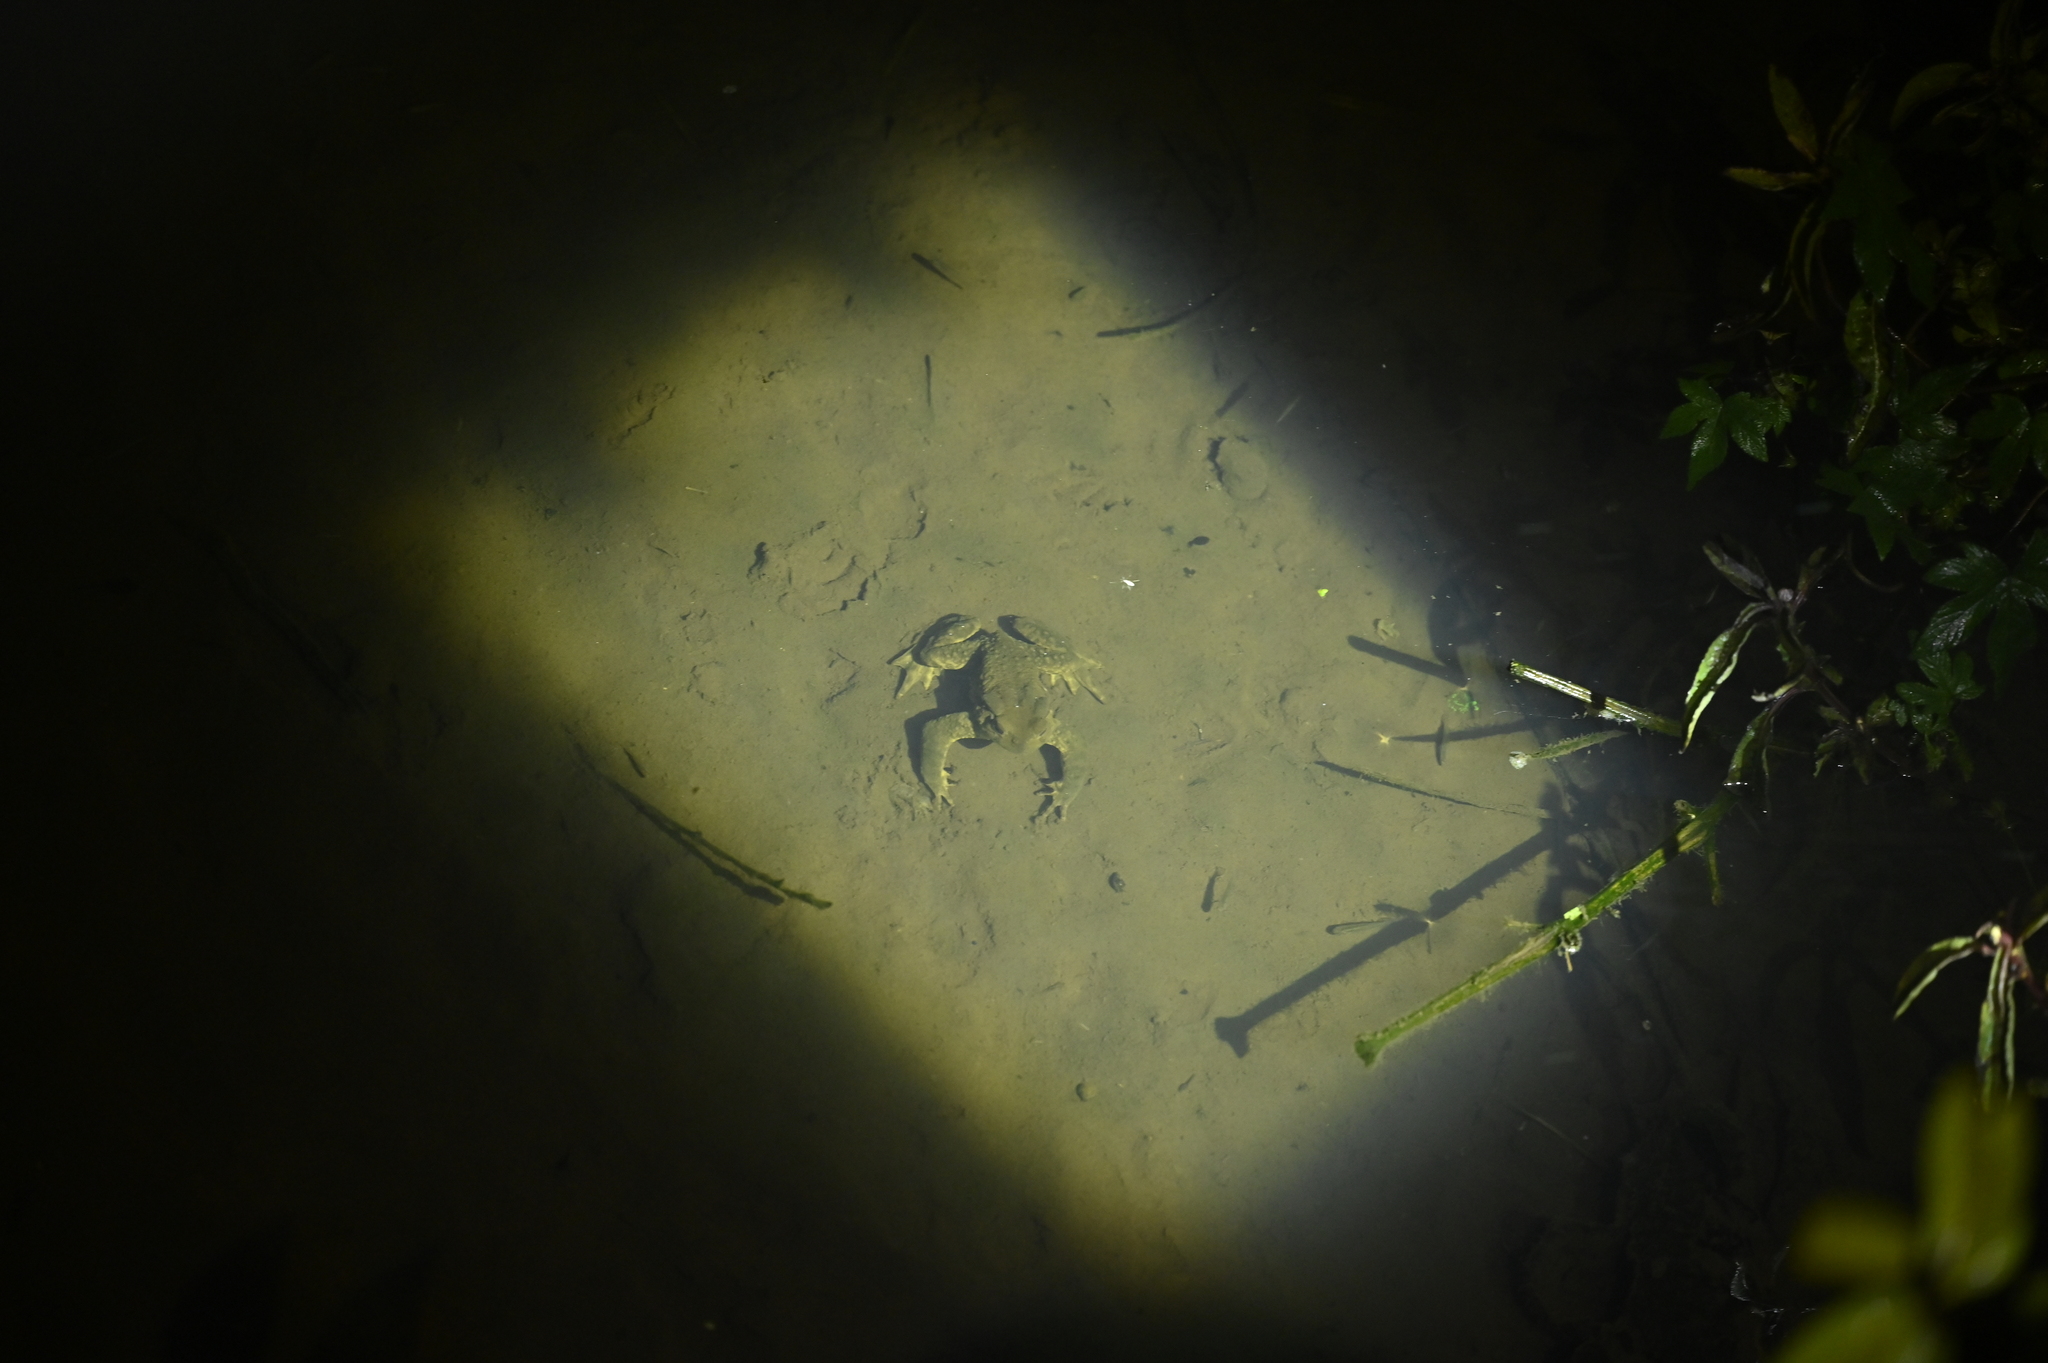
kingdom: Animalia
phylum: Chordata
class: Amphibia
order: Anura
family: Bufonidae
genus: Bufo
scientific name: Bufo bankorensis
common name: Bankor toad
